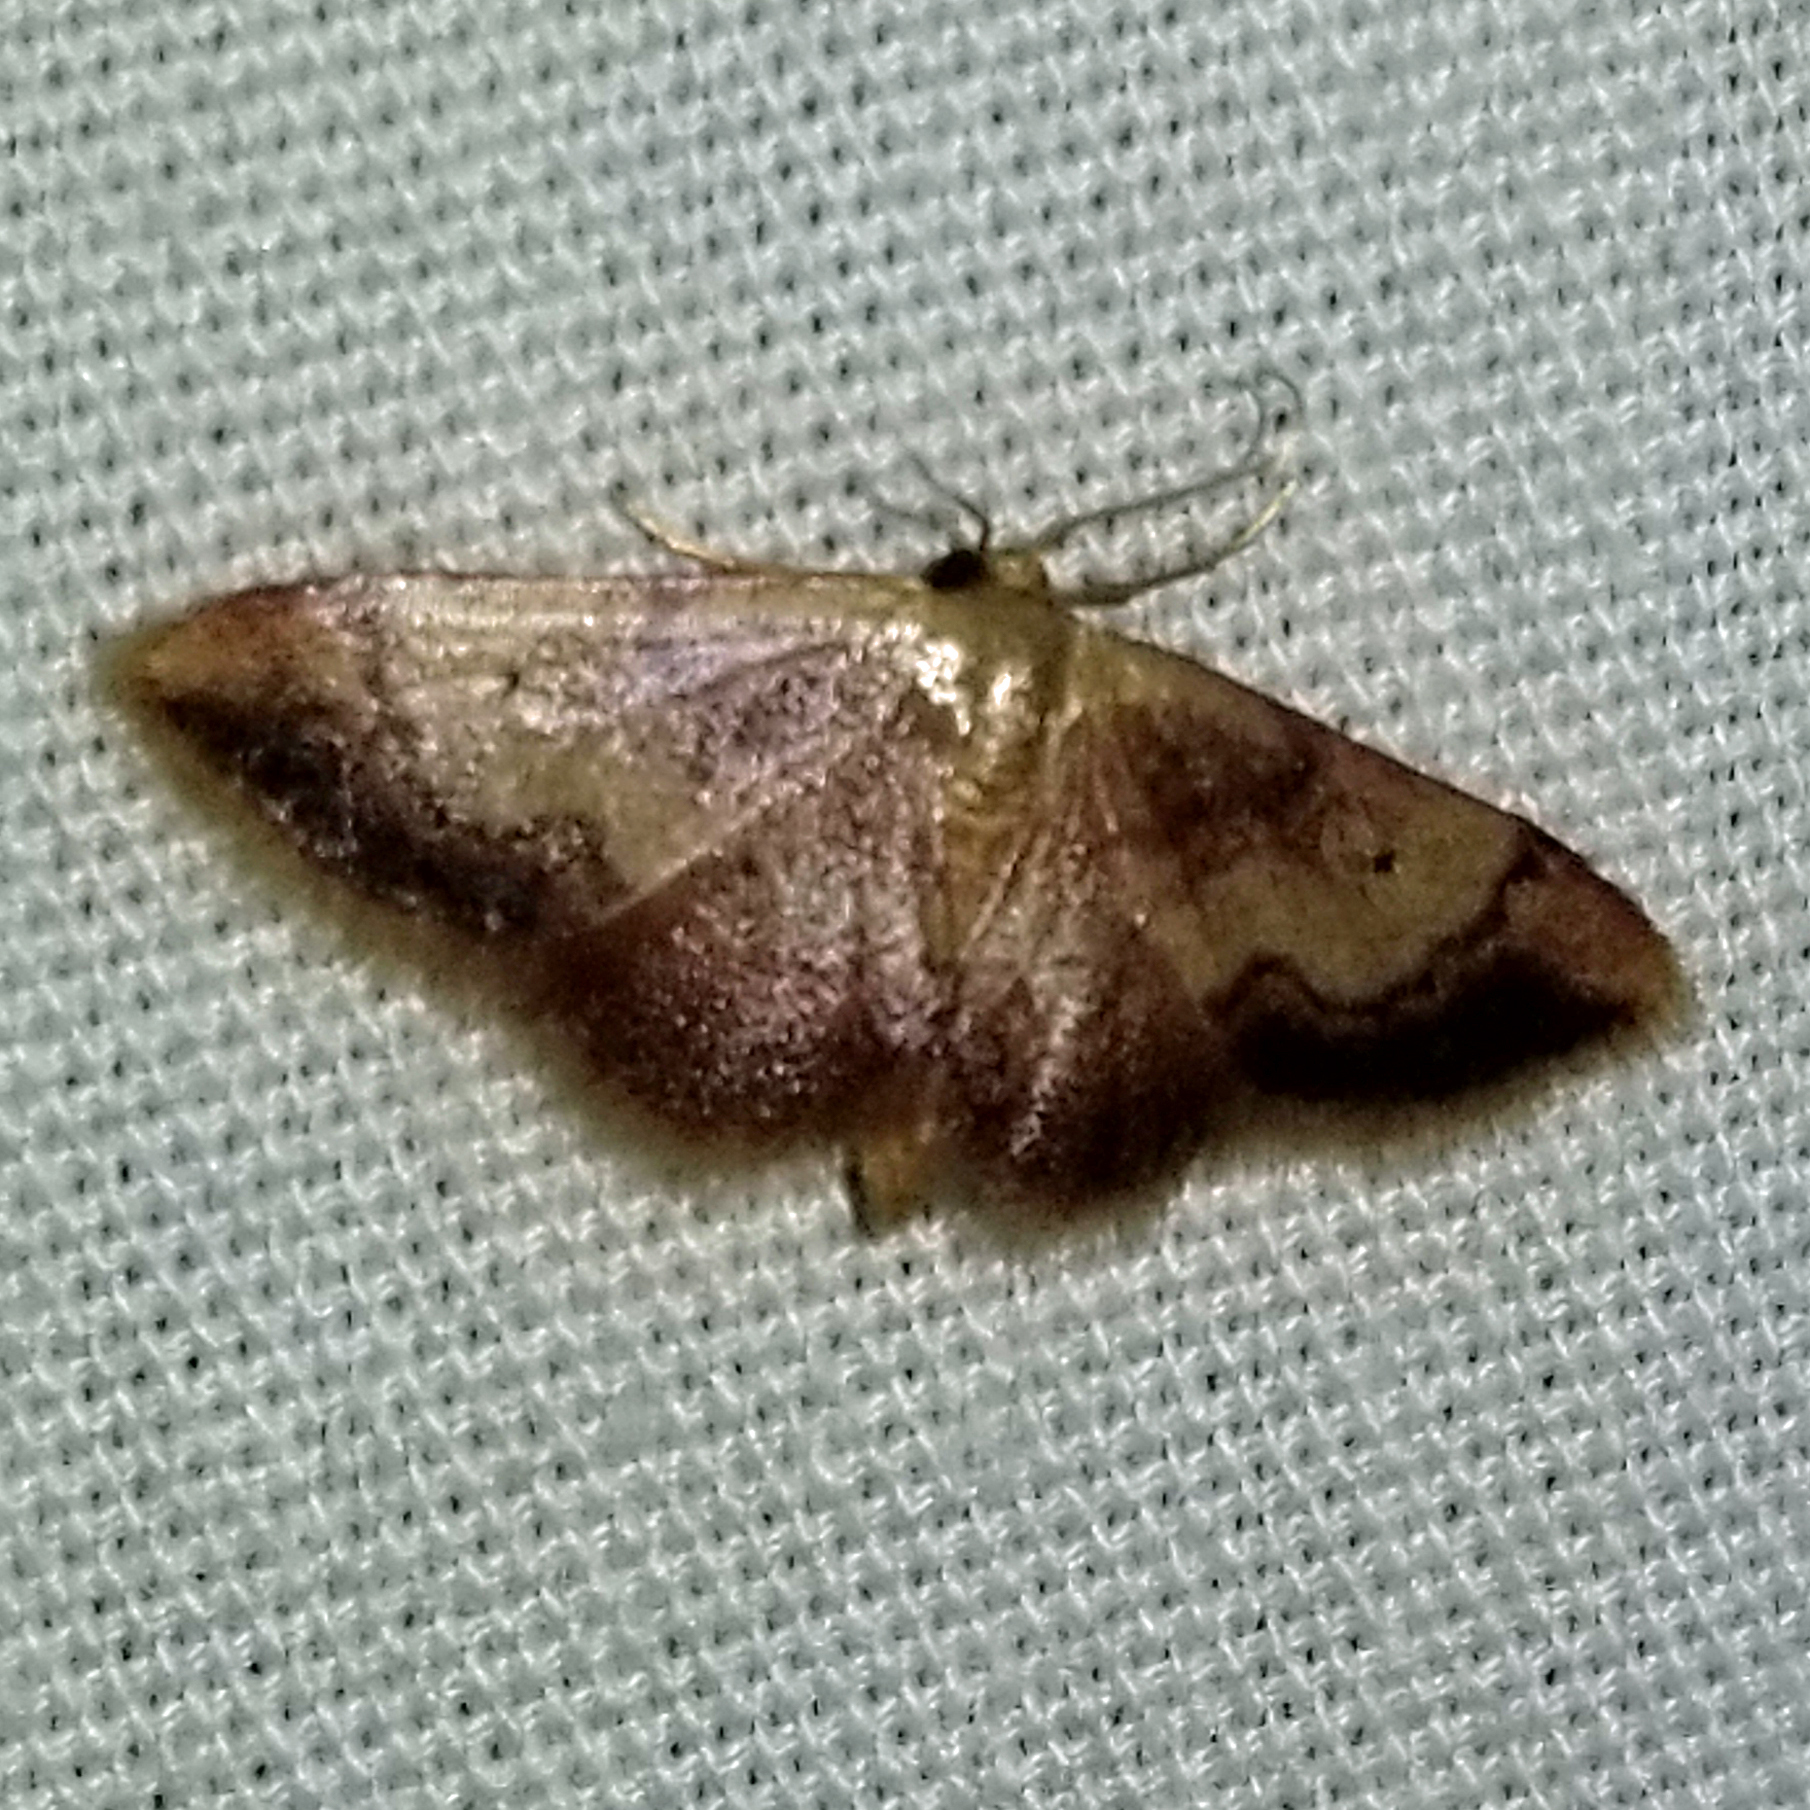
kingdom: Animalia
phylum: Arthropoda
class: Insecta
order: Lepidoptera
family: Geometridae
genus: Idaea
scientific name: Idaea demissaria
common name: Red-bordered wave
